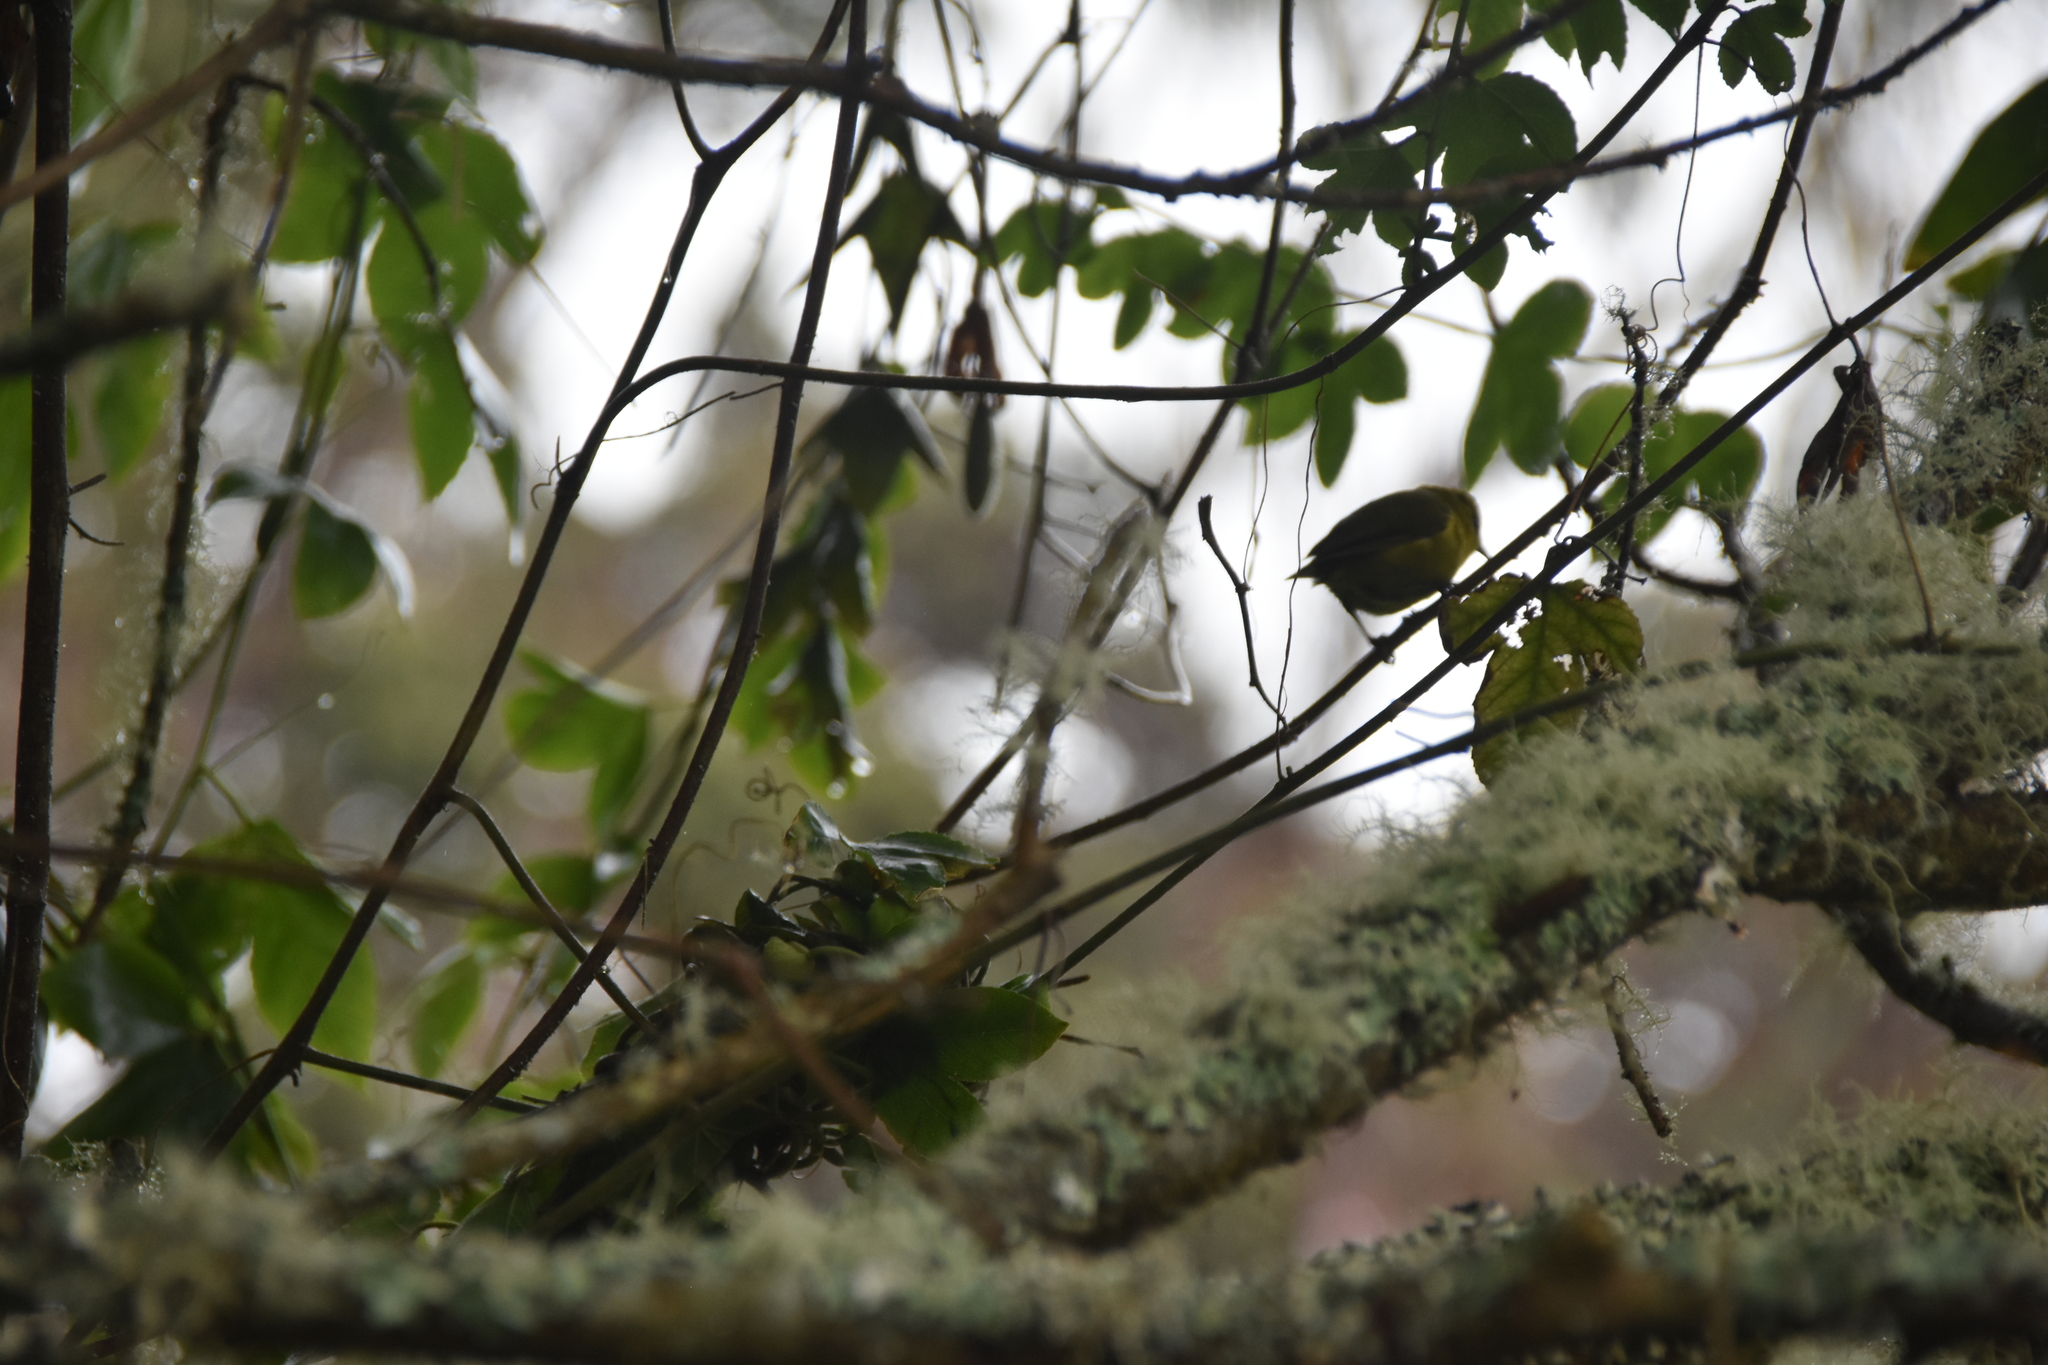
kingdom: Animalia
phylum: Chordata
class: Aves
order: Passeriformes
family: Fringillidae
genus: Chlorodrepanis
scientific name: Chlorodrepanis virens
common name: Hawaii amakihi
